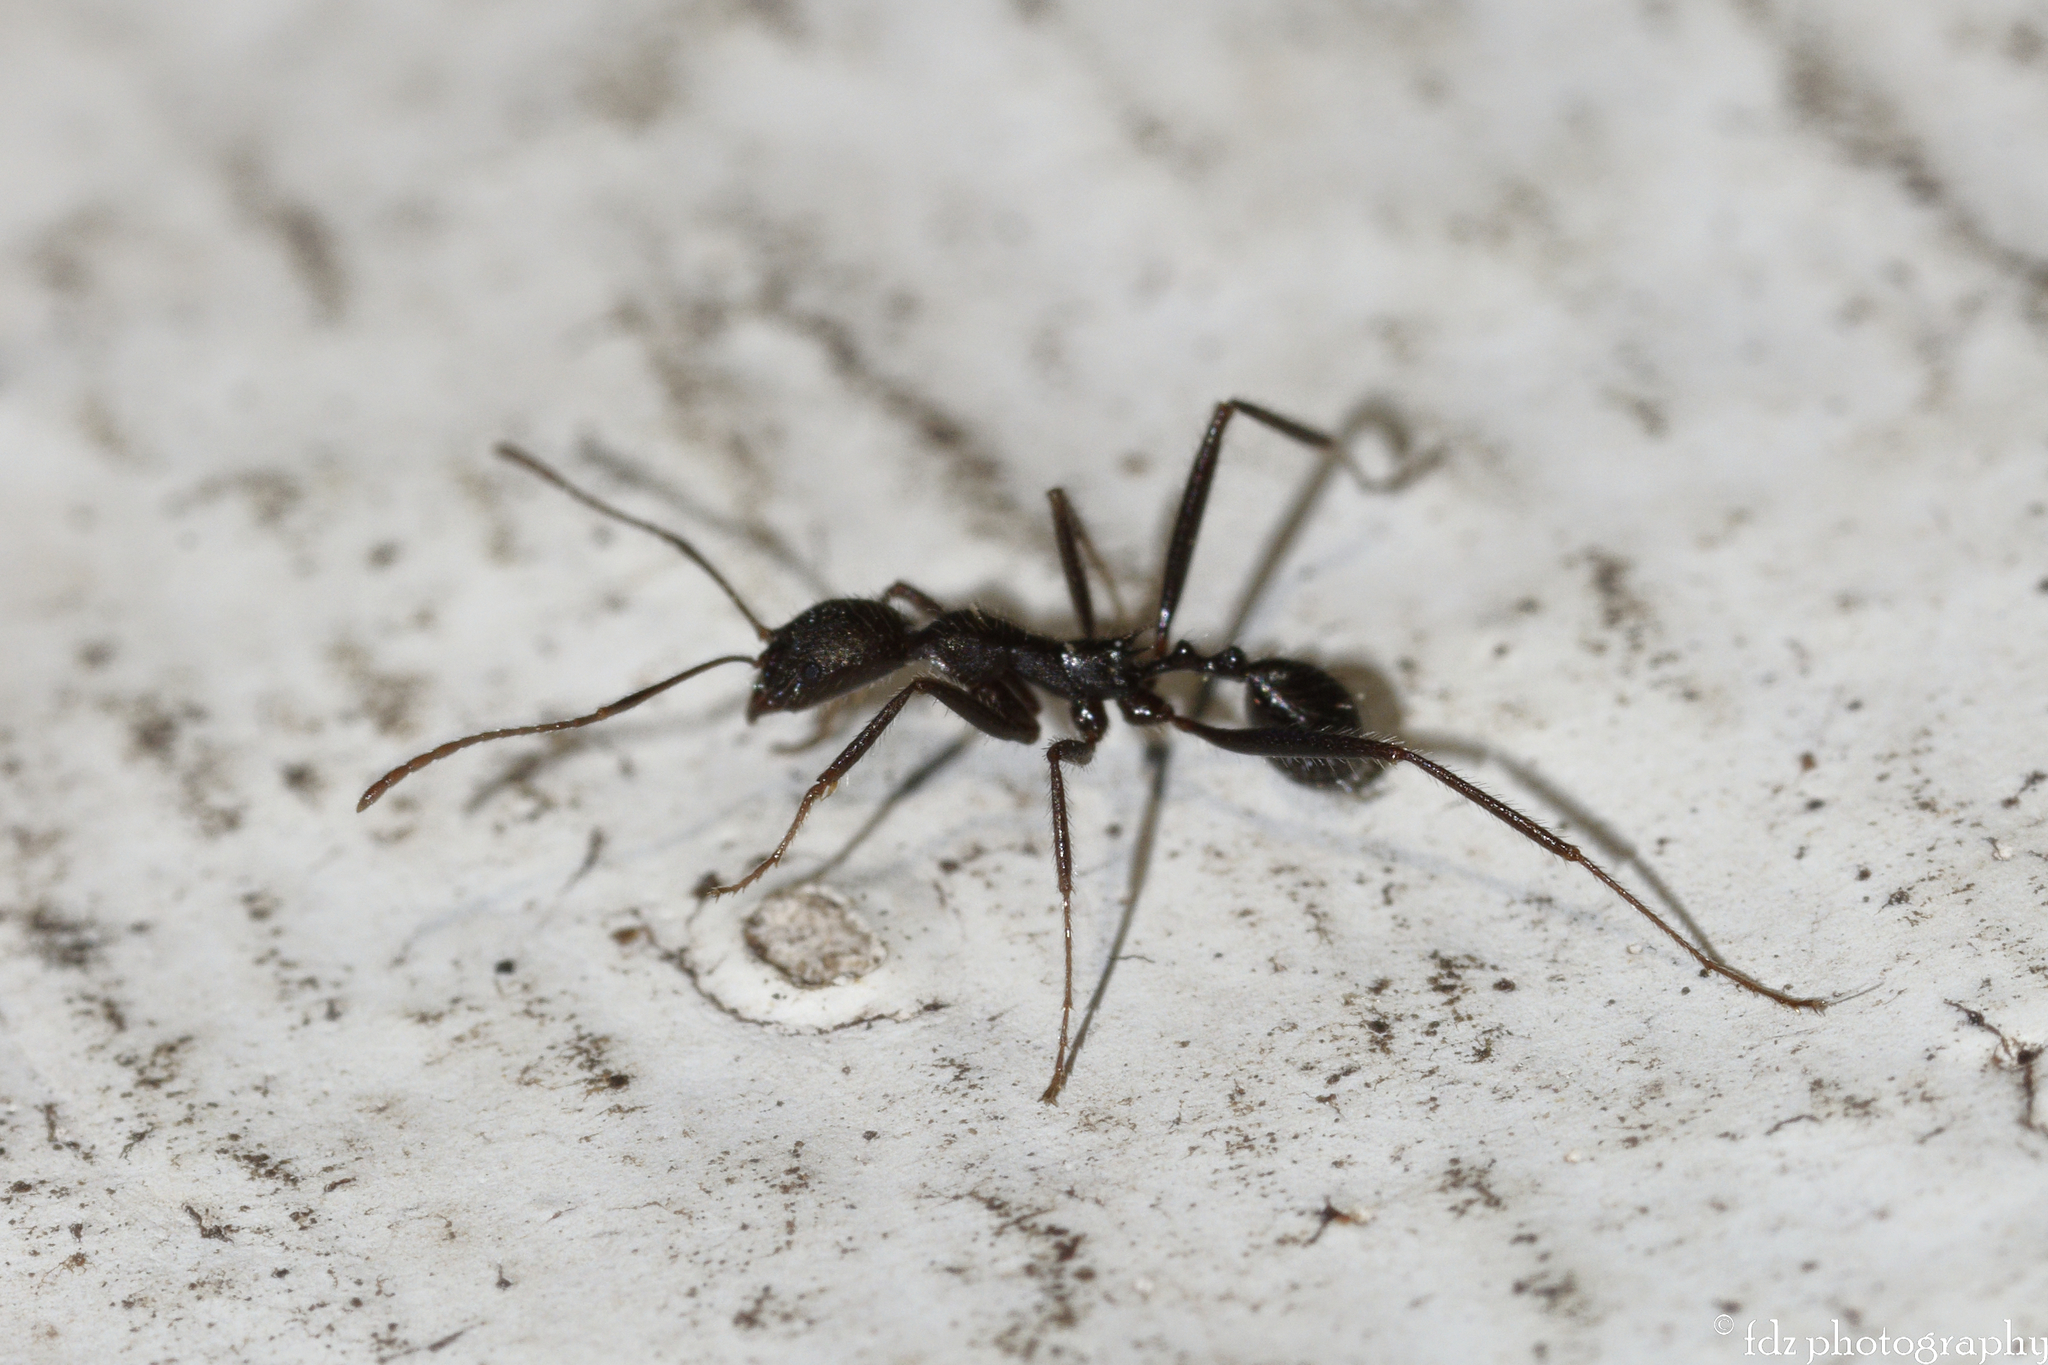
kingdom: Animalia
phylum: Arthropoda
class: Insecta
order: Hymenoptera
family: Formicidae
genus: Aphaenogaster
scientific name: Aphaenogaster iberica
